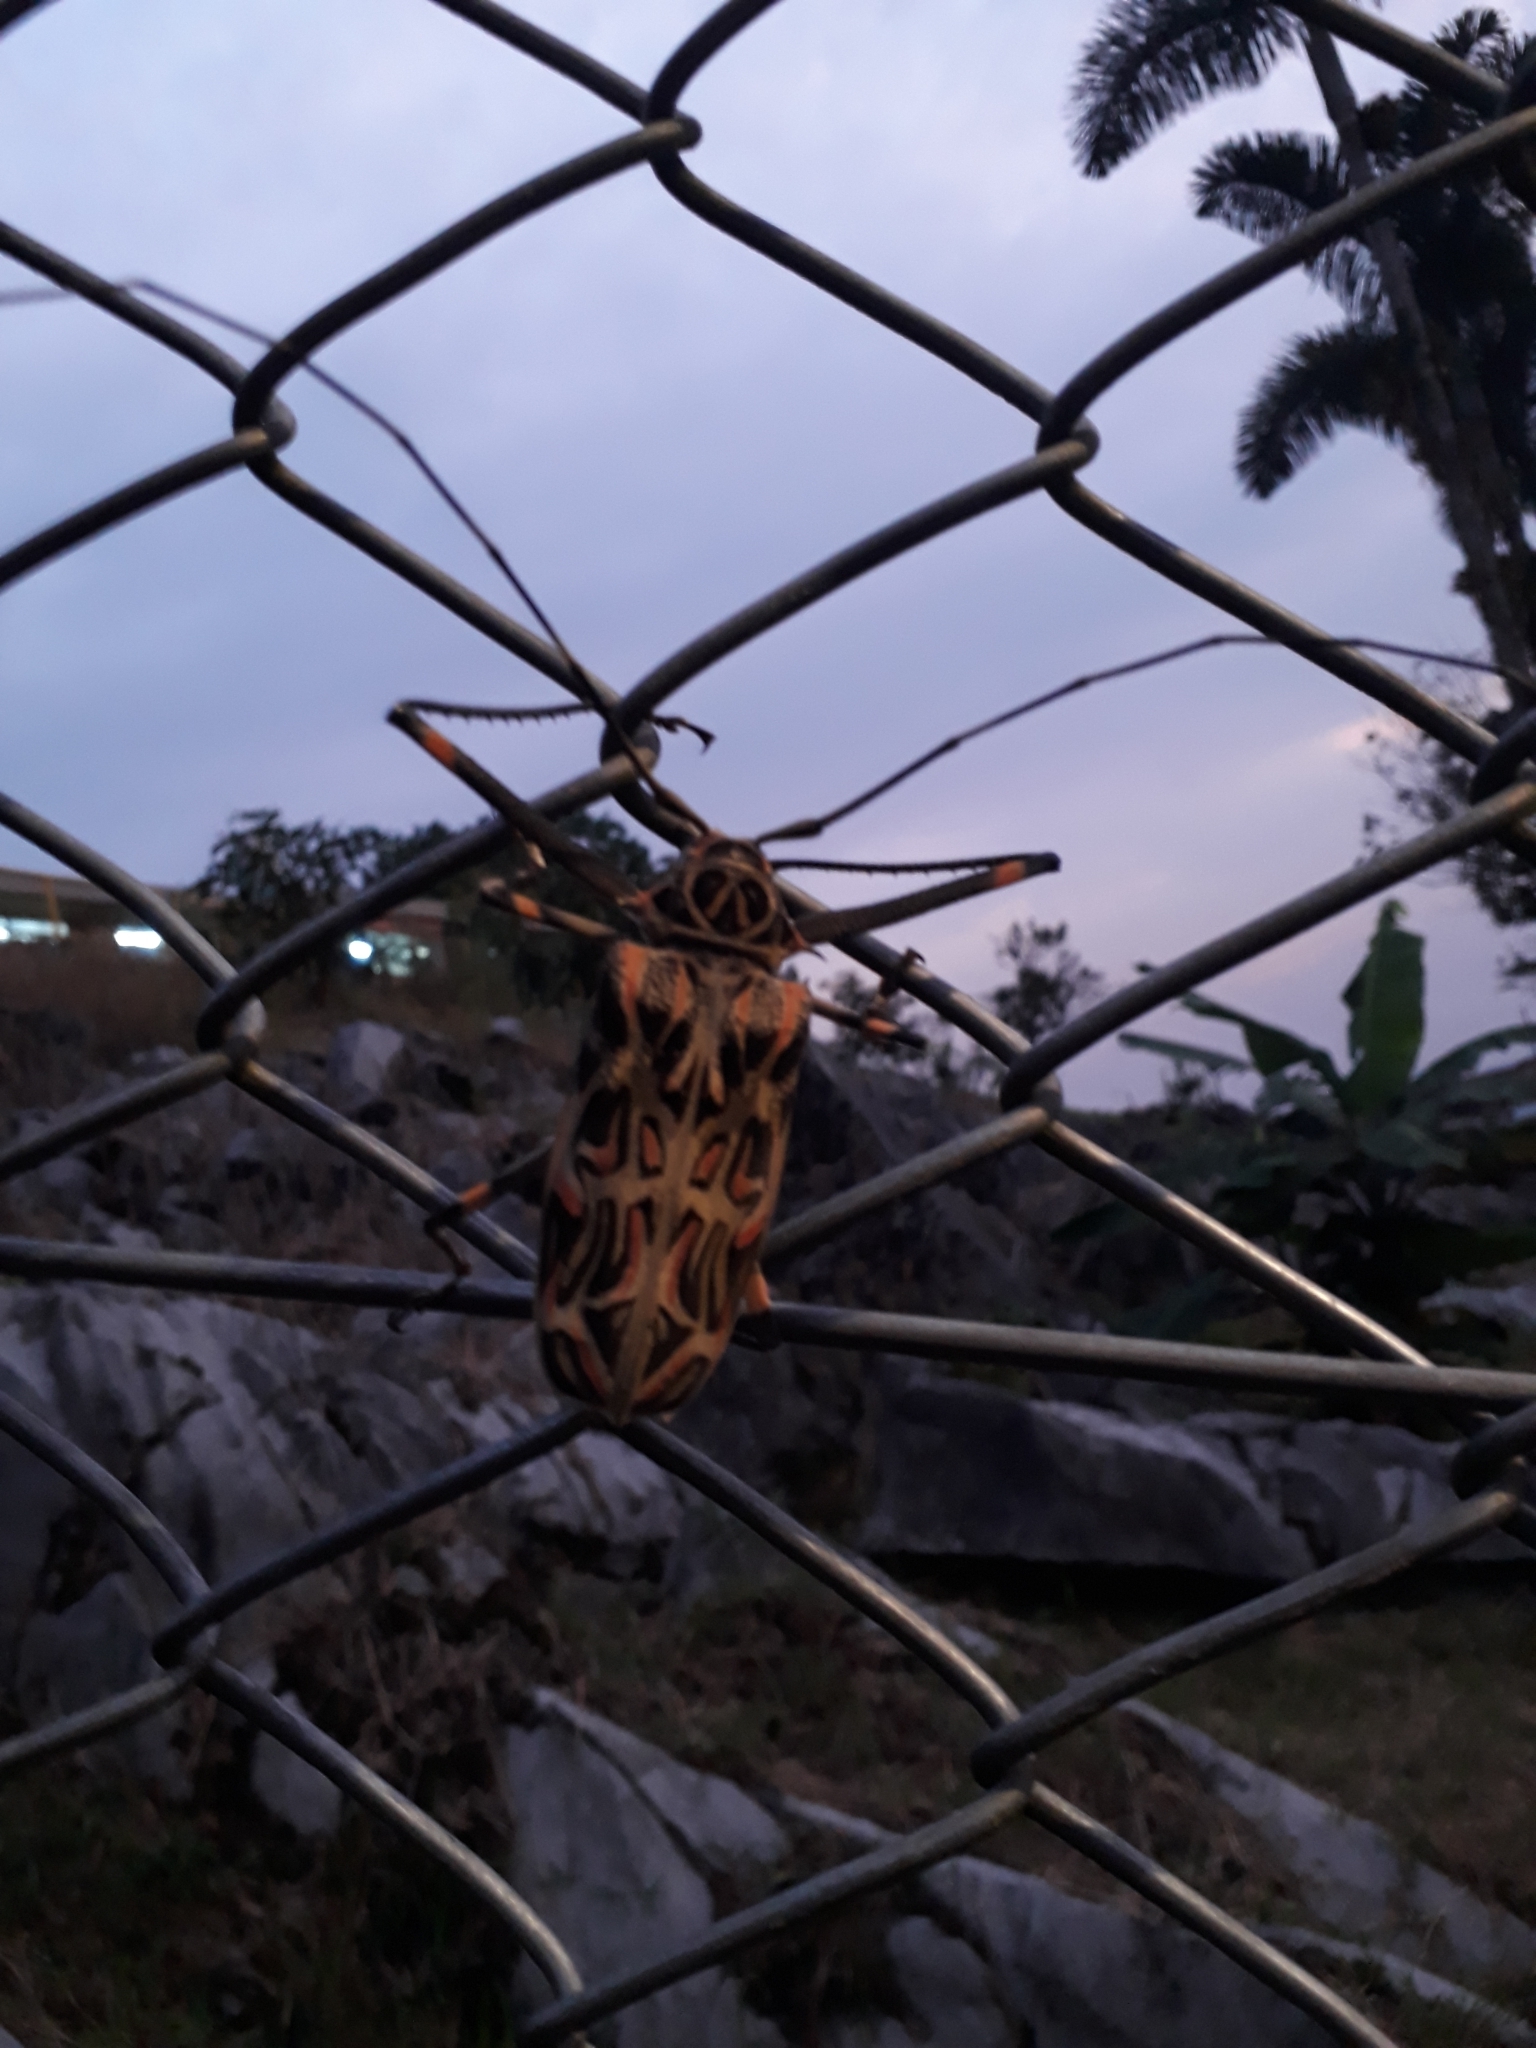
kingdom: Animalia
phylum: Arthropoda
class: Insecta
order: Coleoptera
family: Cerambycidae
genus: Acrocinus
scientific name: Acrocinus longimanus
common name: Arlequin
